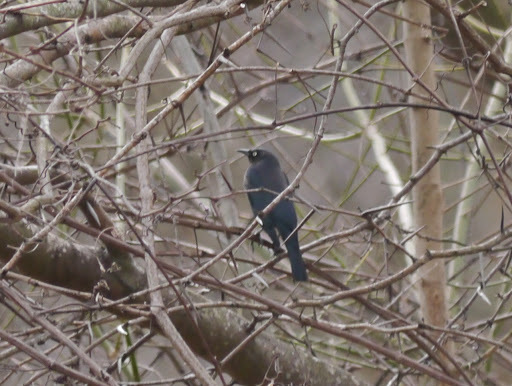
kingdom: Animalia
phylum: Chordata
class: Aves
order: Passeriformes
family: Icteridae
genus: Euphagus
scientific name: Euphagus carolinus
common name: Rusty blackbird
